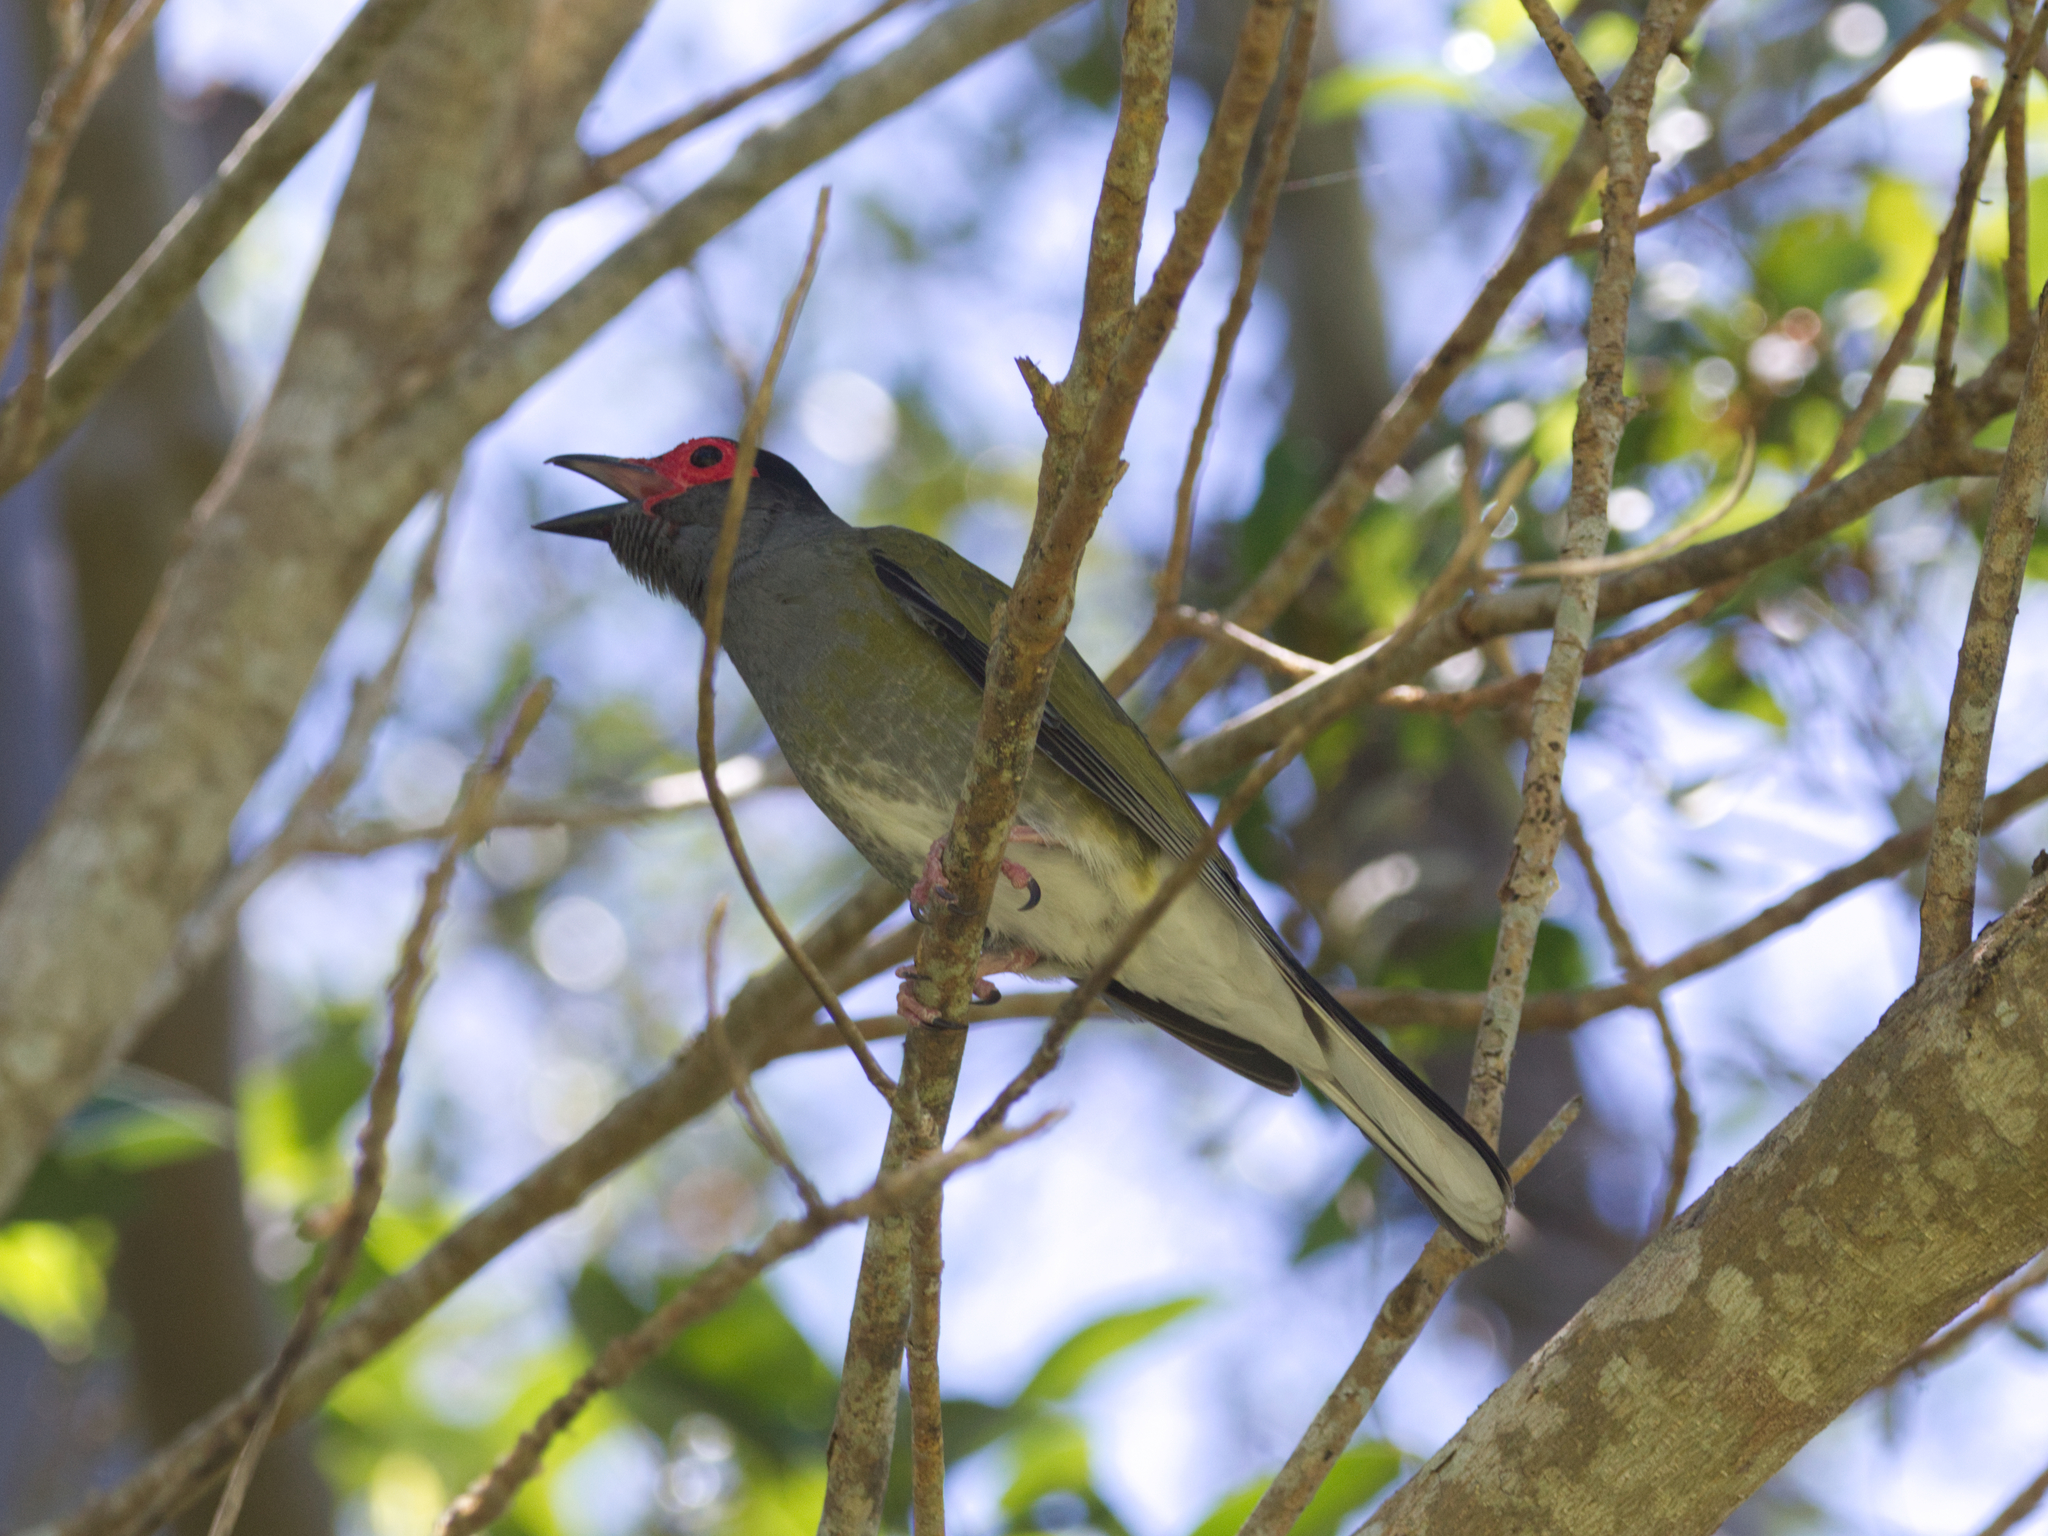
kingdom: Animalia
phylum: Chordata
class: Aves
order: Passeriformes
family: Oriolidae
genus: Sphecotheres
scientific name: Sphecotheres vieilloti
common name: Australasian figbird
